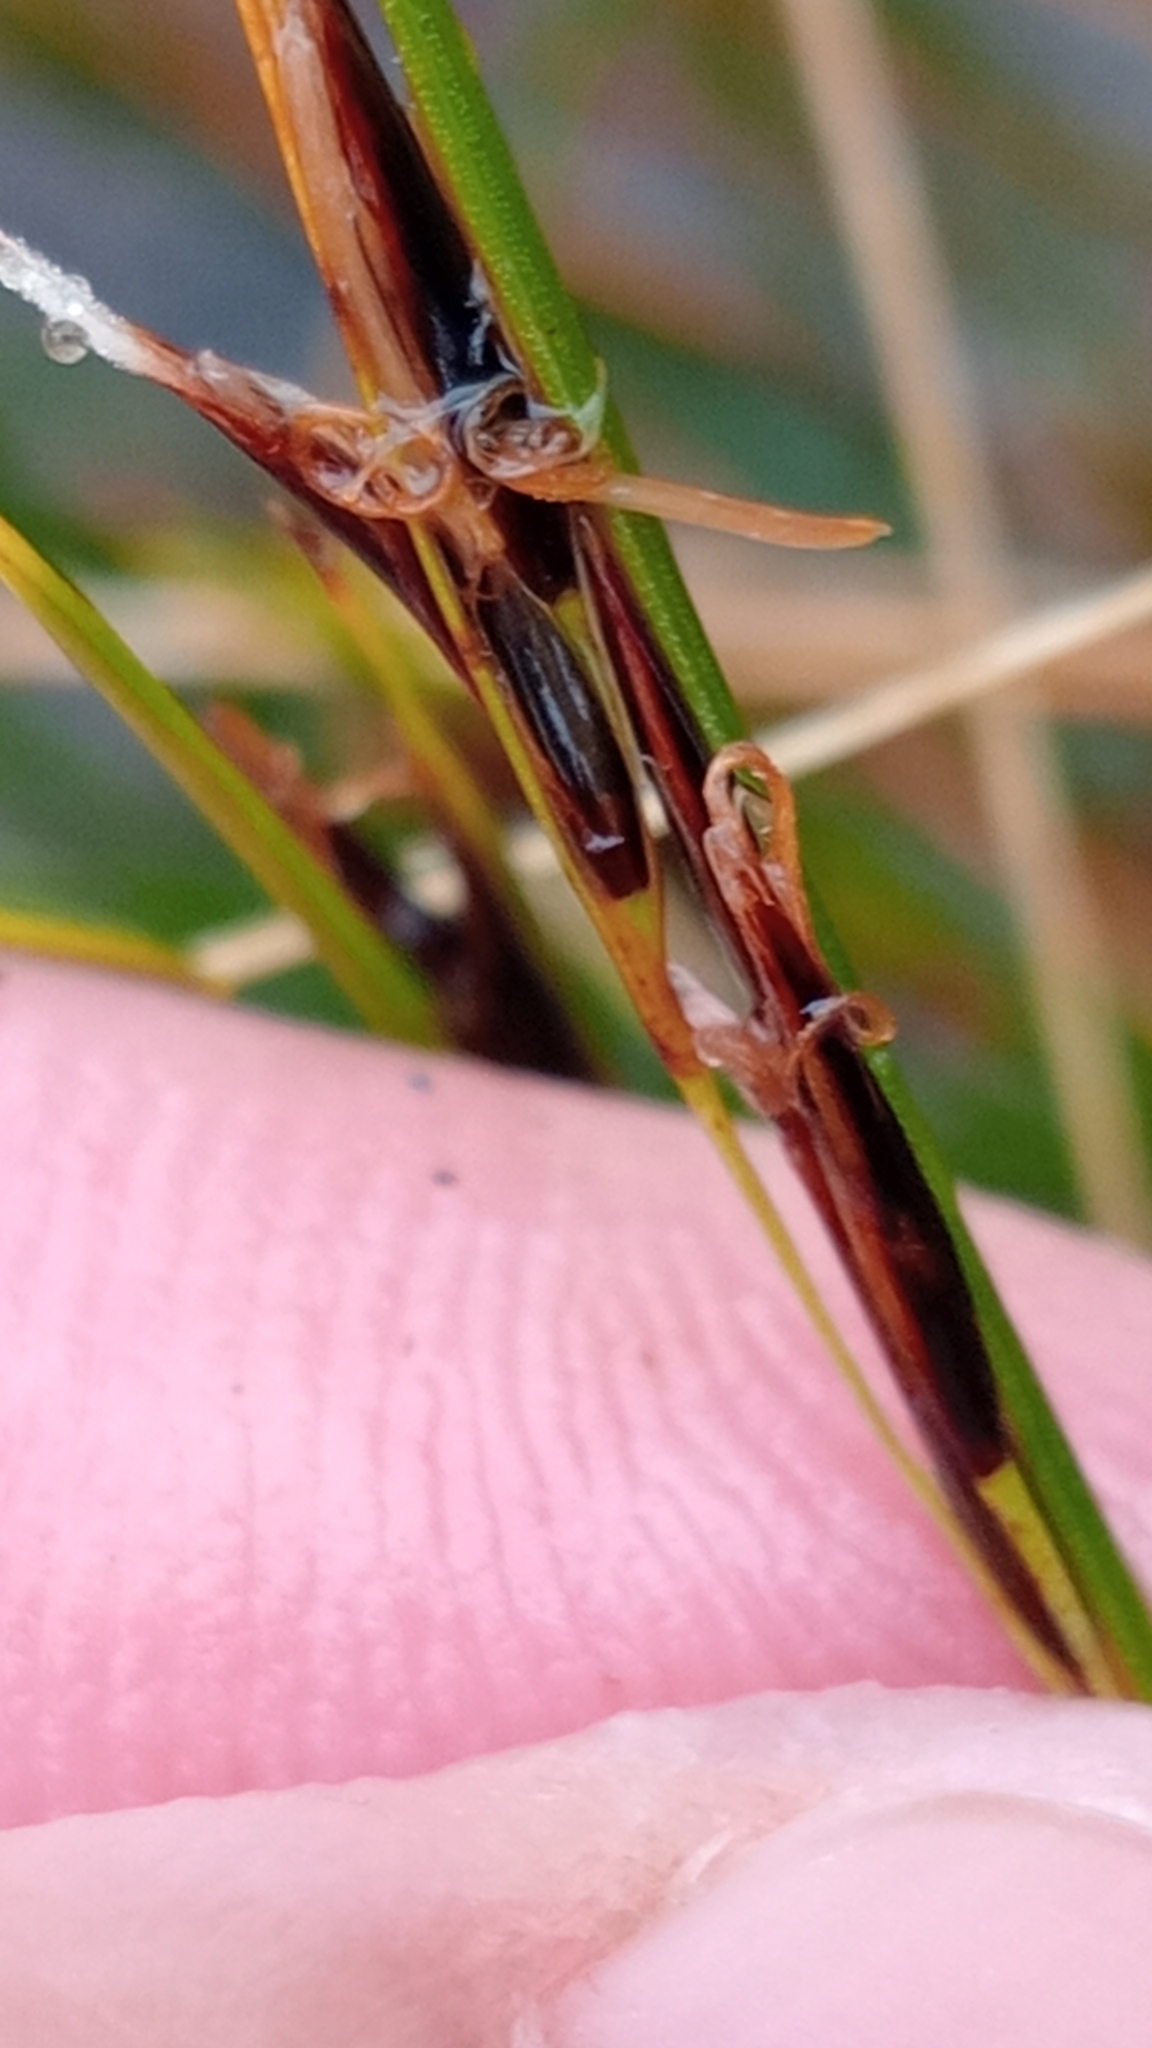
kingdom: Plantae
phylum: Tracheophyta
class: Liliopsida
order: Poales
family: Cyperaceae
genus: Schoenus
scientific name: Schoenus pauciflorus
